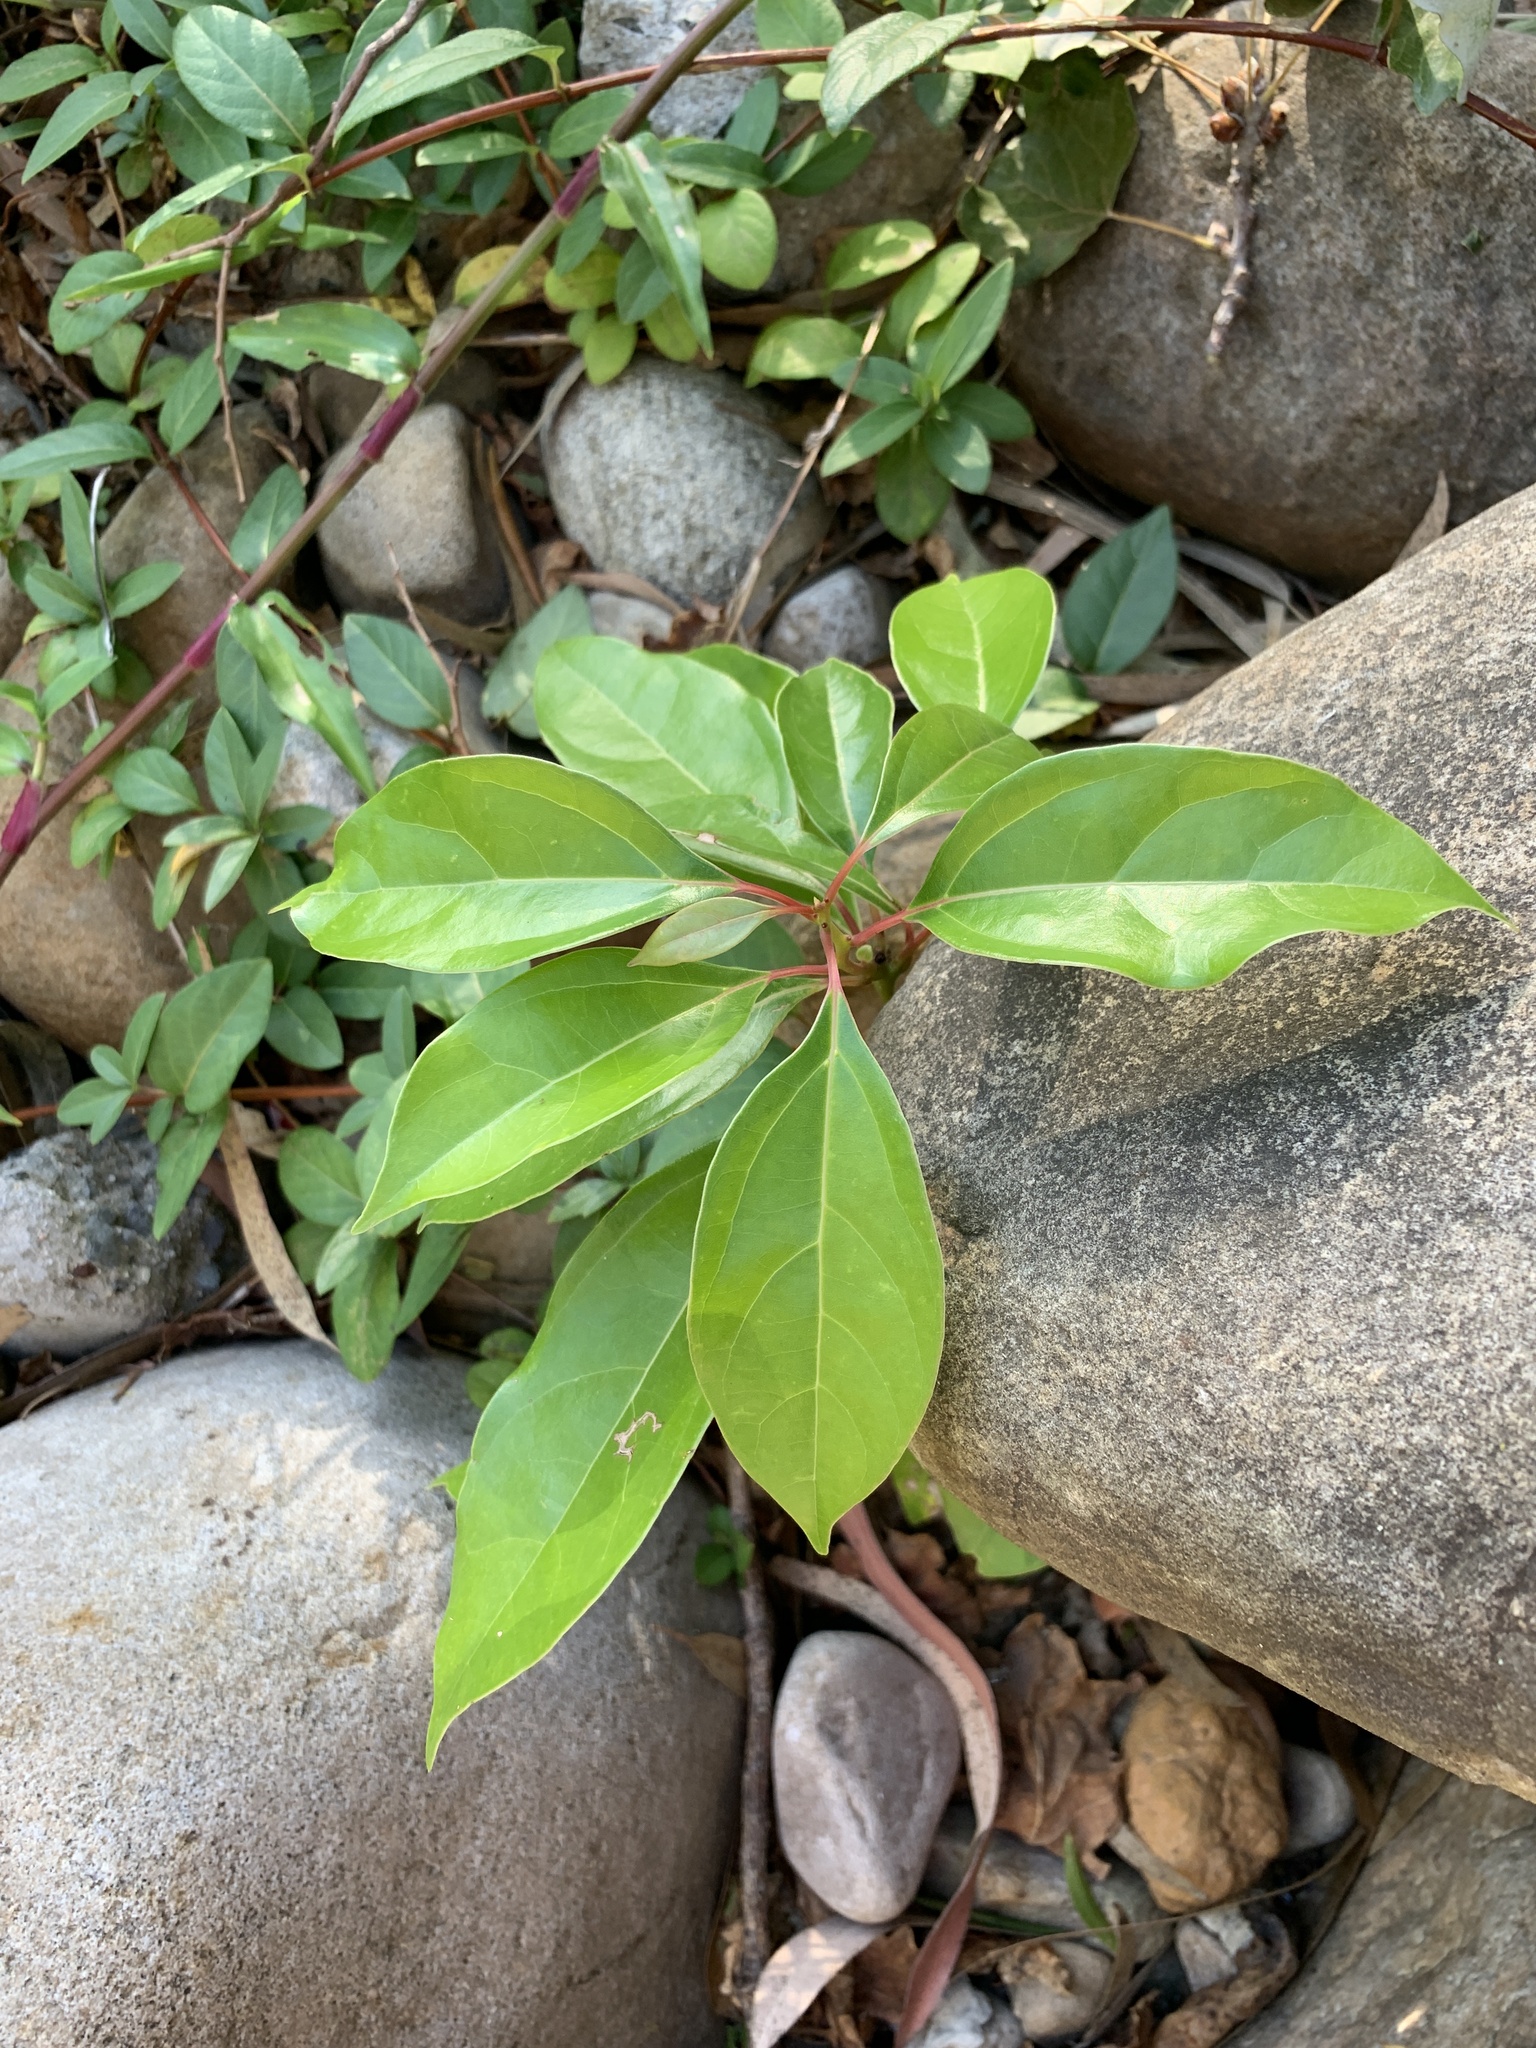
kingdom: Plantae
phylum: Tracheophyta
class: Magnoliopsida
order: Laurales
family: Lauraceae
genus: Cinnamomum
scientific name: Cinnamomum camphora
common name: Camphortree
